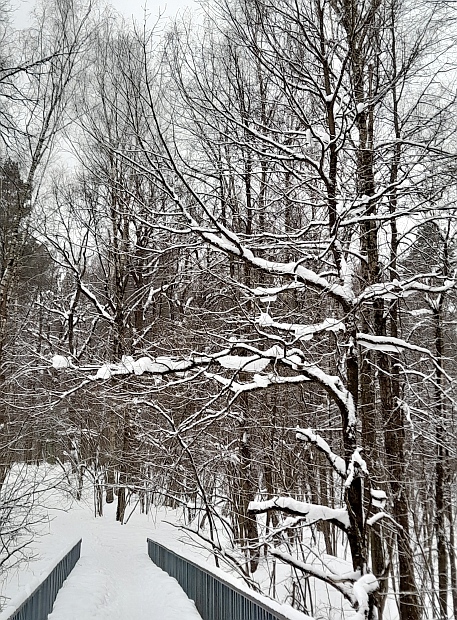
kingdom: Plantae
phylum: Tracheophyta
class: Magnoliopsida
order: Fagales
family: Fagaceae
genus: Quercus
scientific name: Quercus robur
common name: Pedunculate oak
